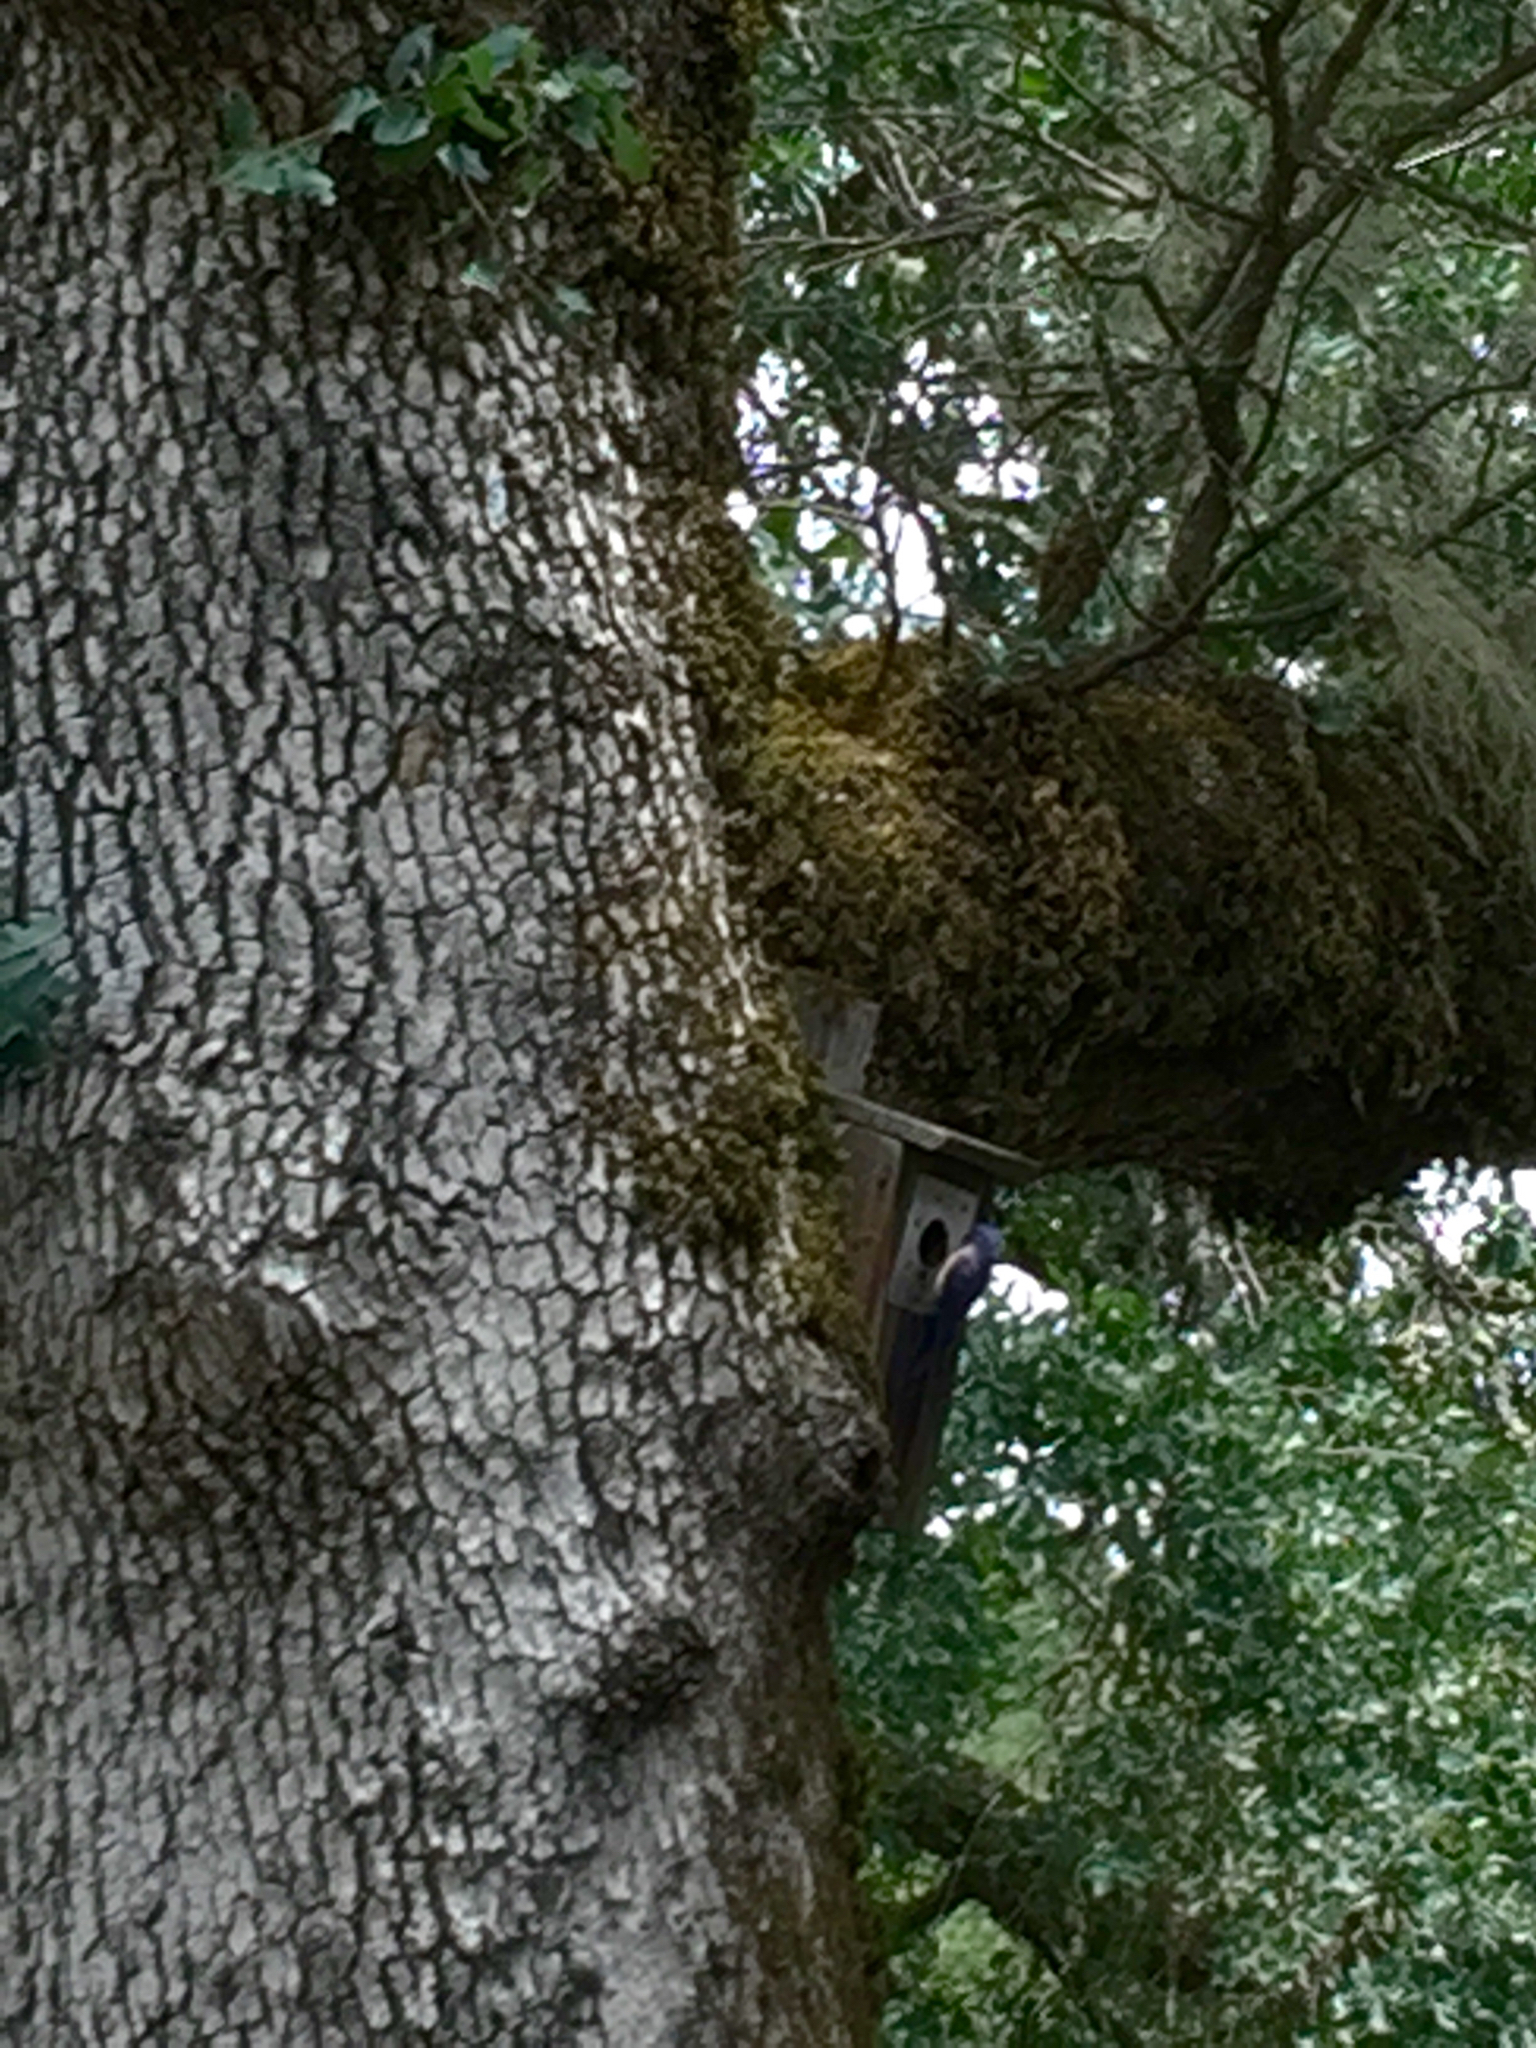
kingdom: Animalia
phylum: Chordata
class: Aves
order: Passeriformes
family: Turdidae
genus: Sialia
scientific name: Sialia mexicana
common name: Western bluebird
